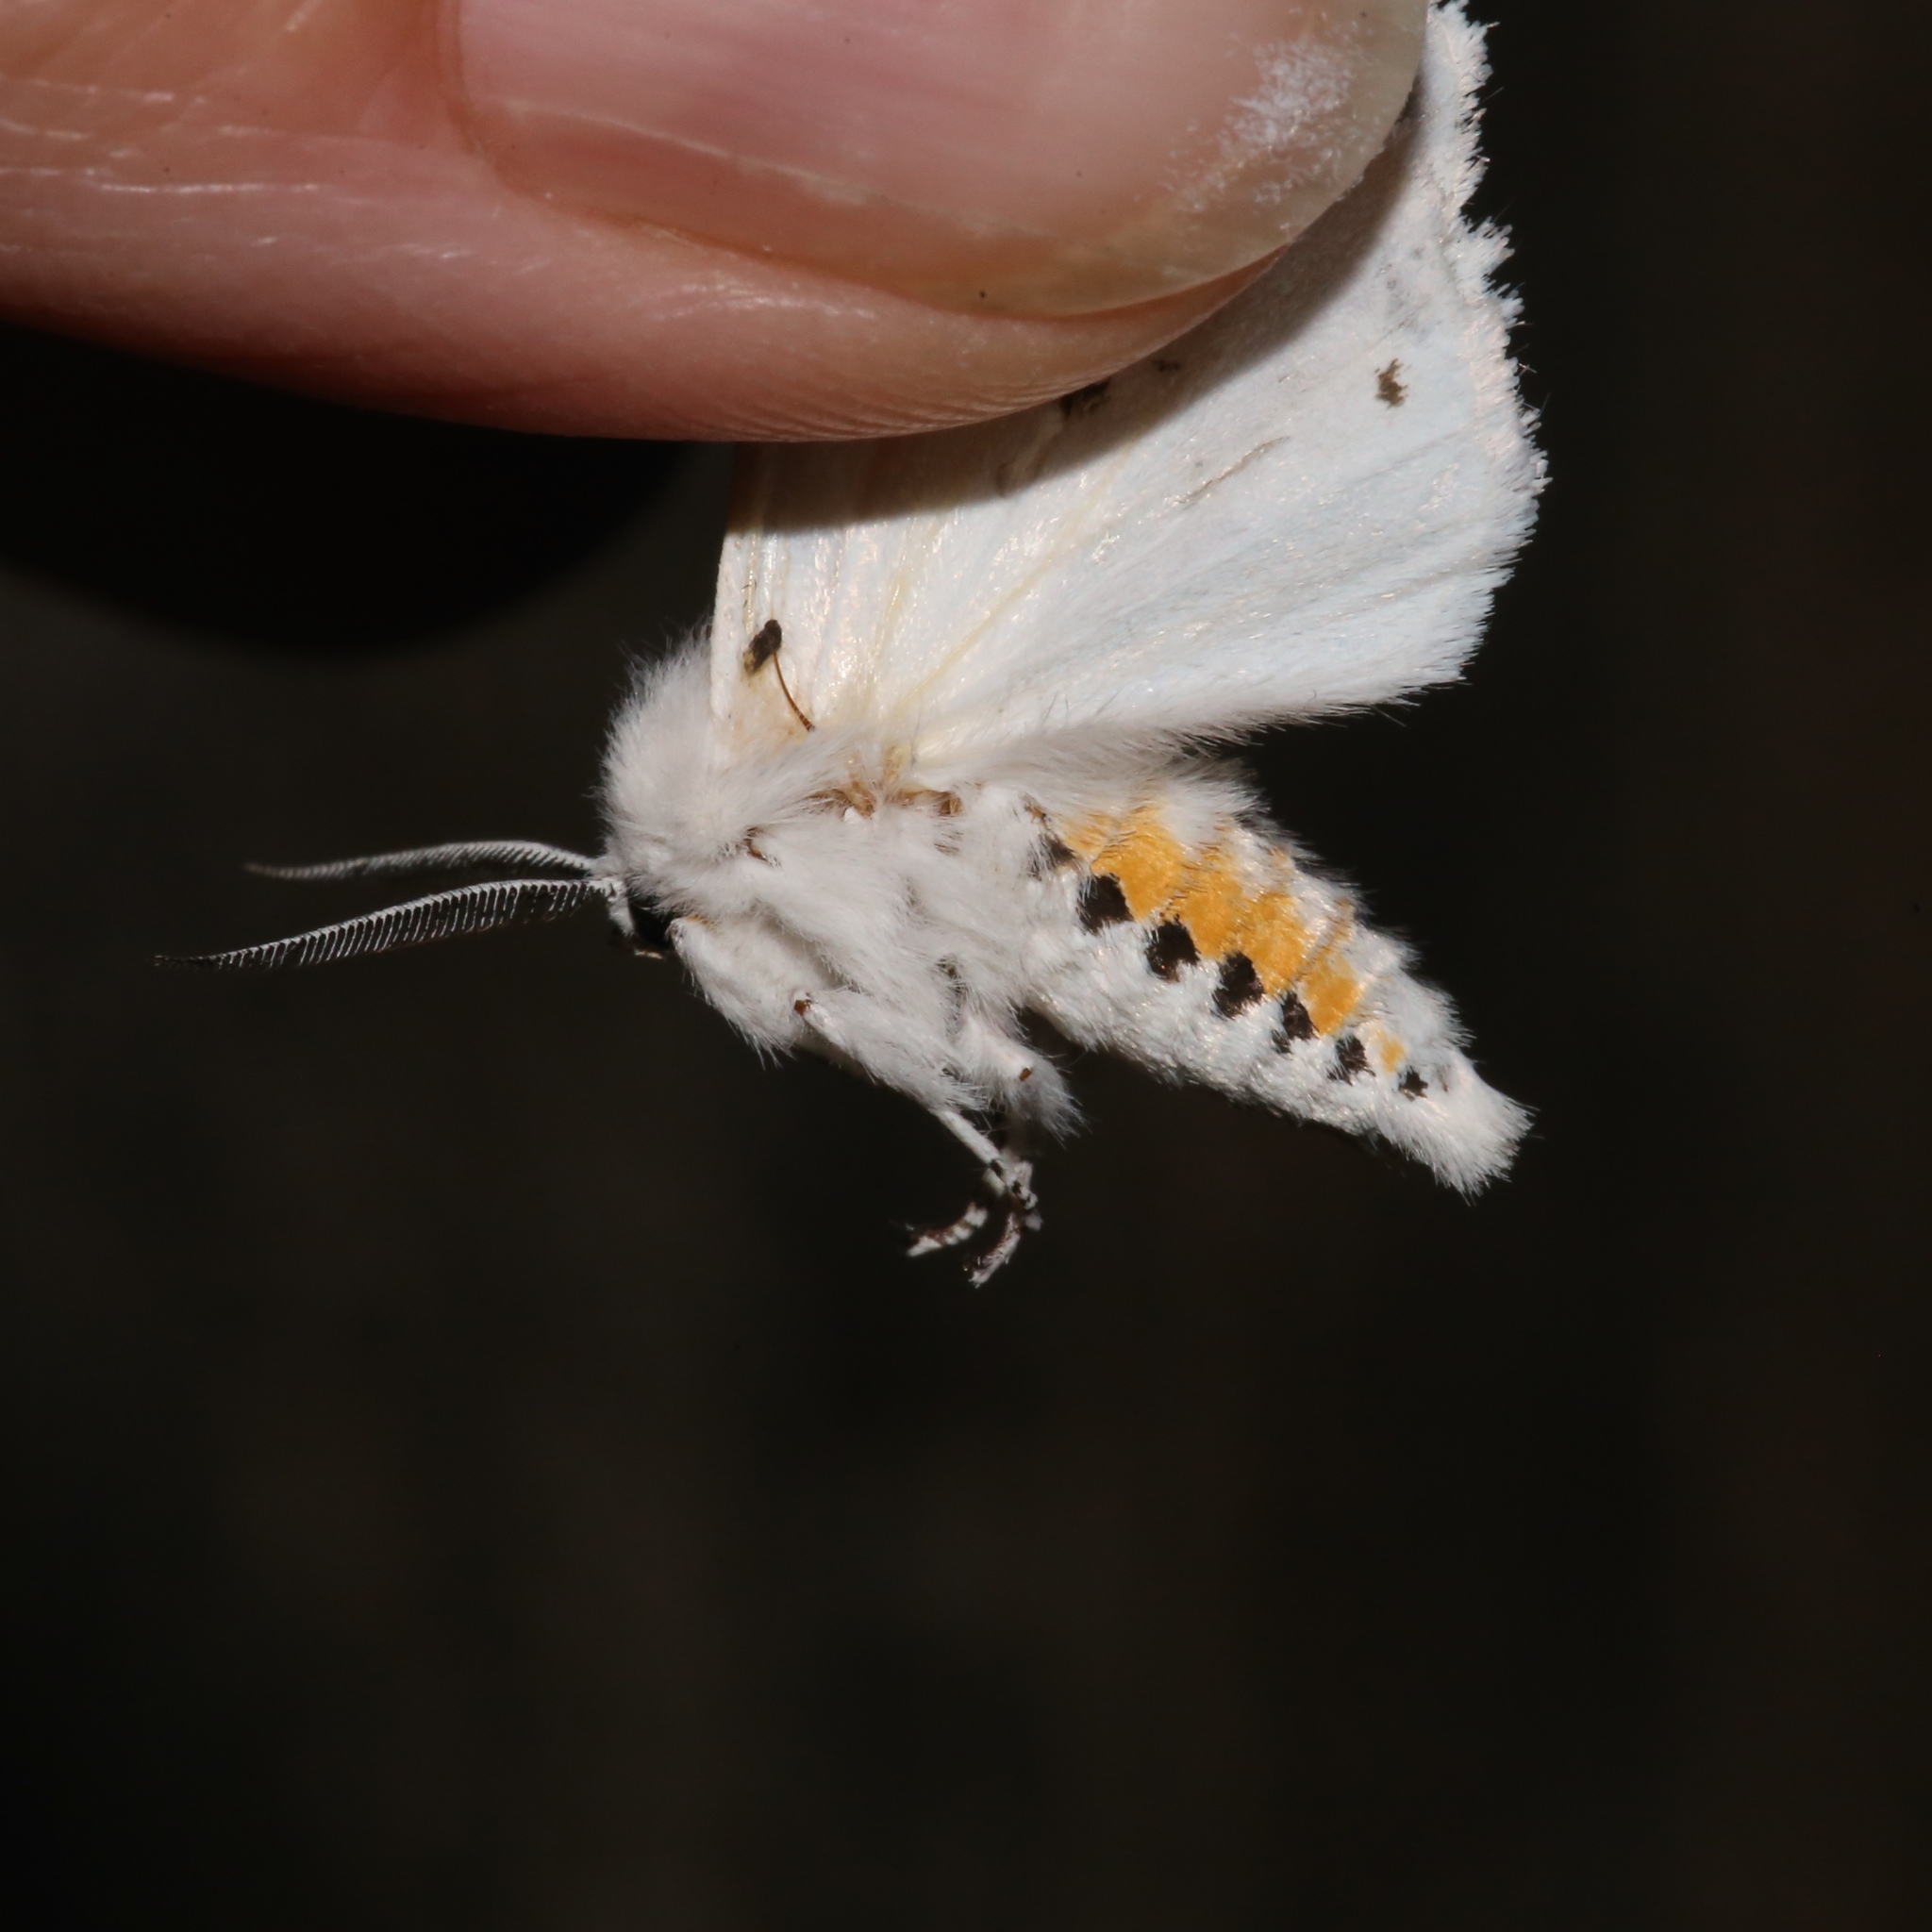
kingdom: Animalia
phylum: Arthropoda
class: Insecta
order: Lepidoptera
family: Erebidae
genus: Spilosoma
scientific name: Spilosoma virginica
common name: Virginia tiger moth
